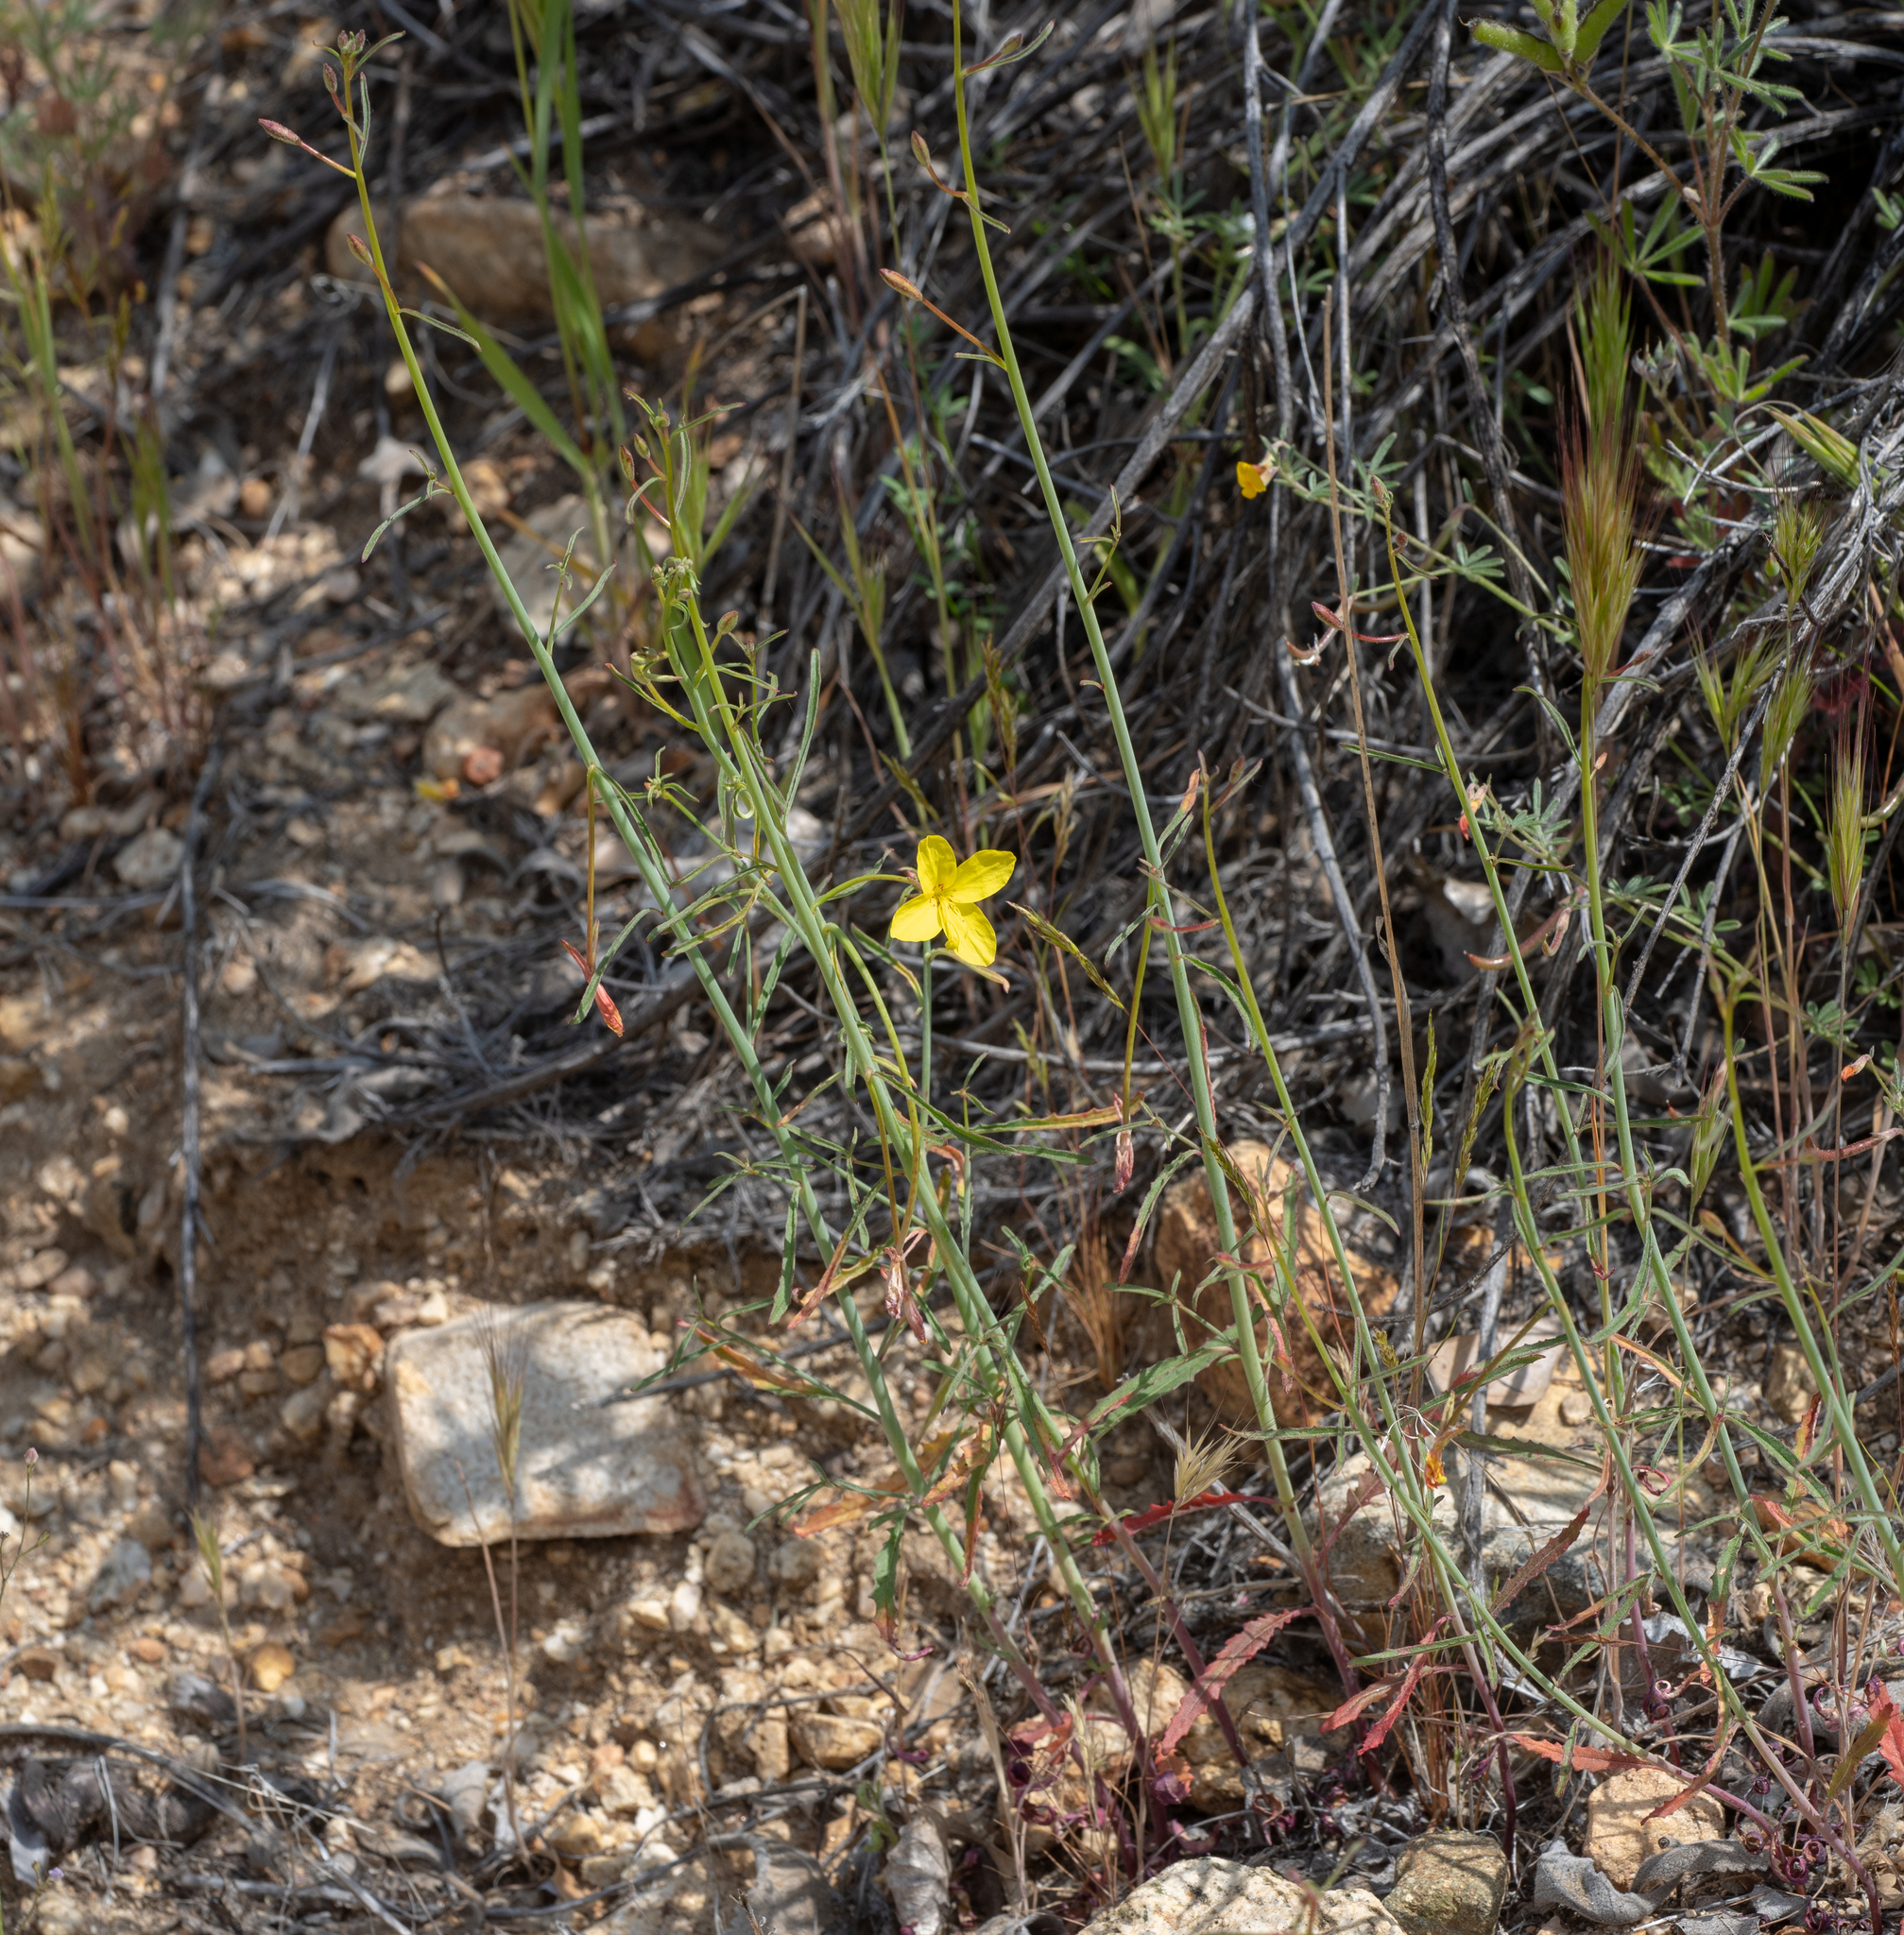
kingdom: Plantae
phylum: Tracheophyta
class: Magnoliopsida
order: Myrtales
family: Onagraceae
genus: Eulobus
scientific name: Eulobus californicus
